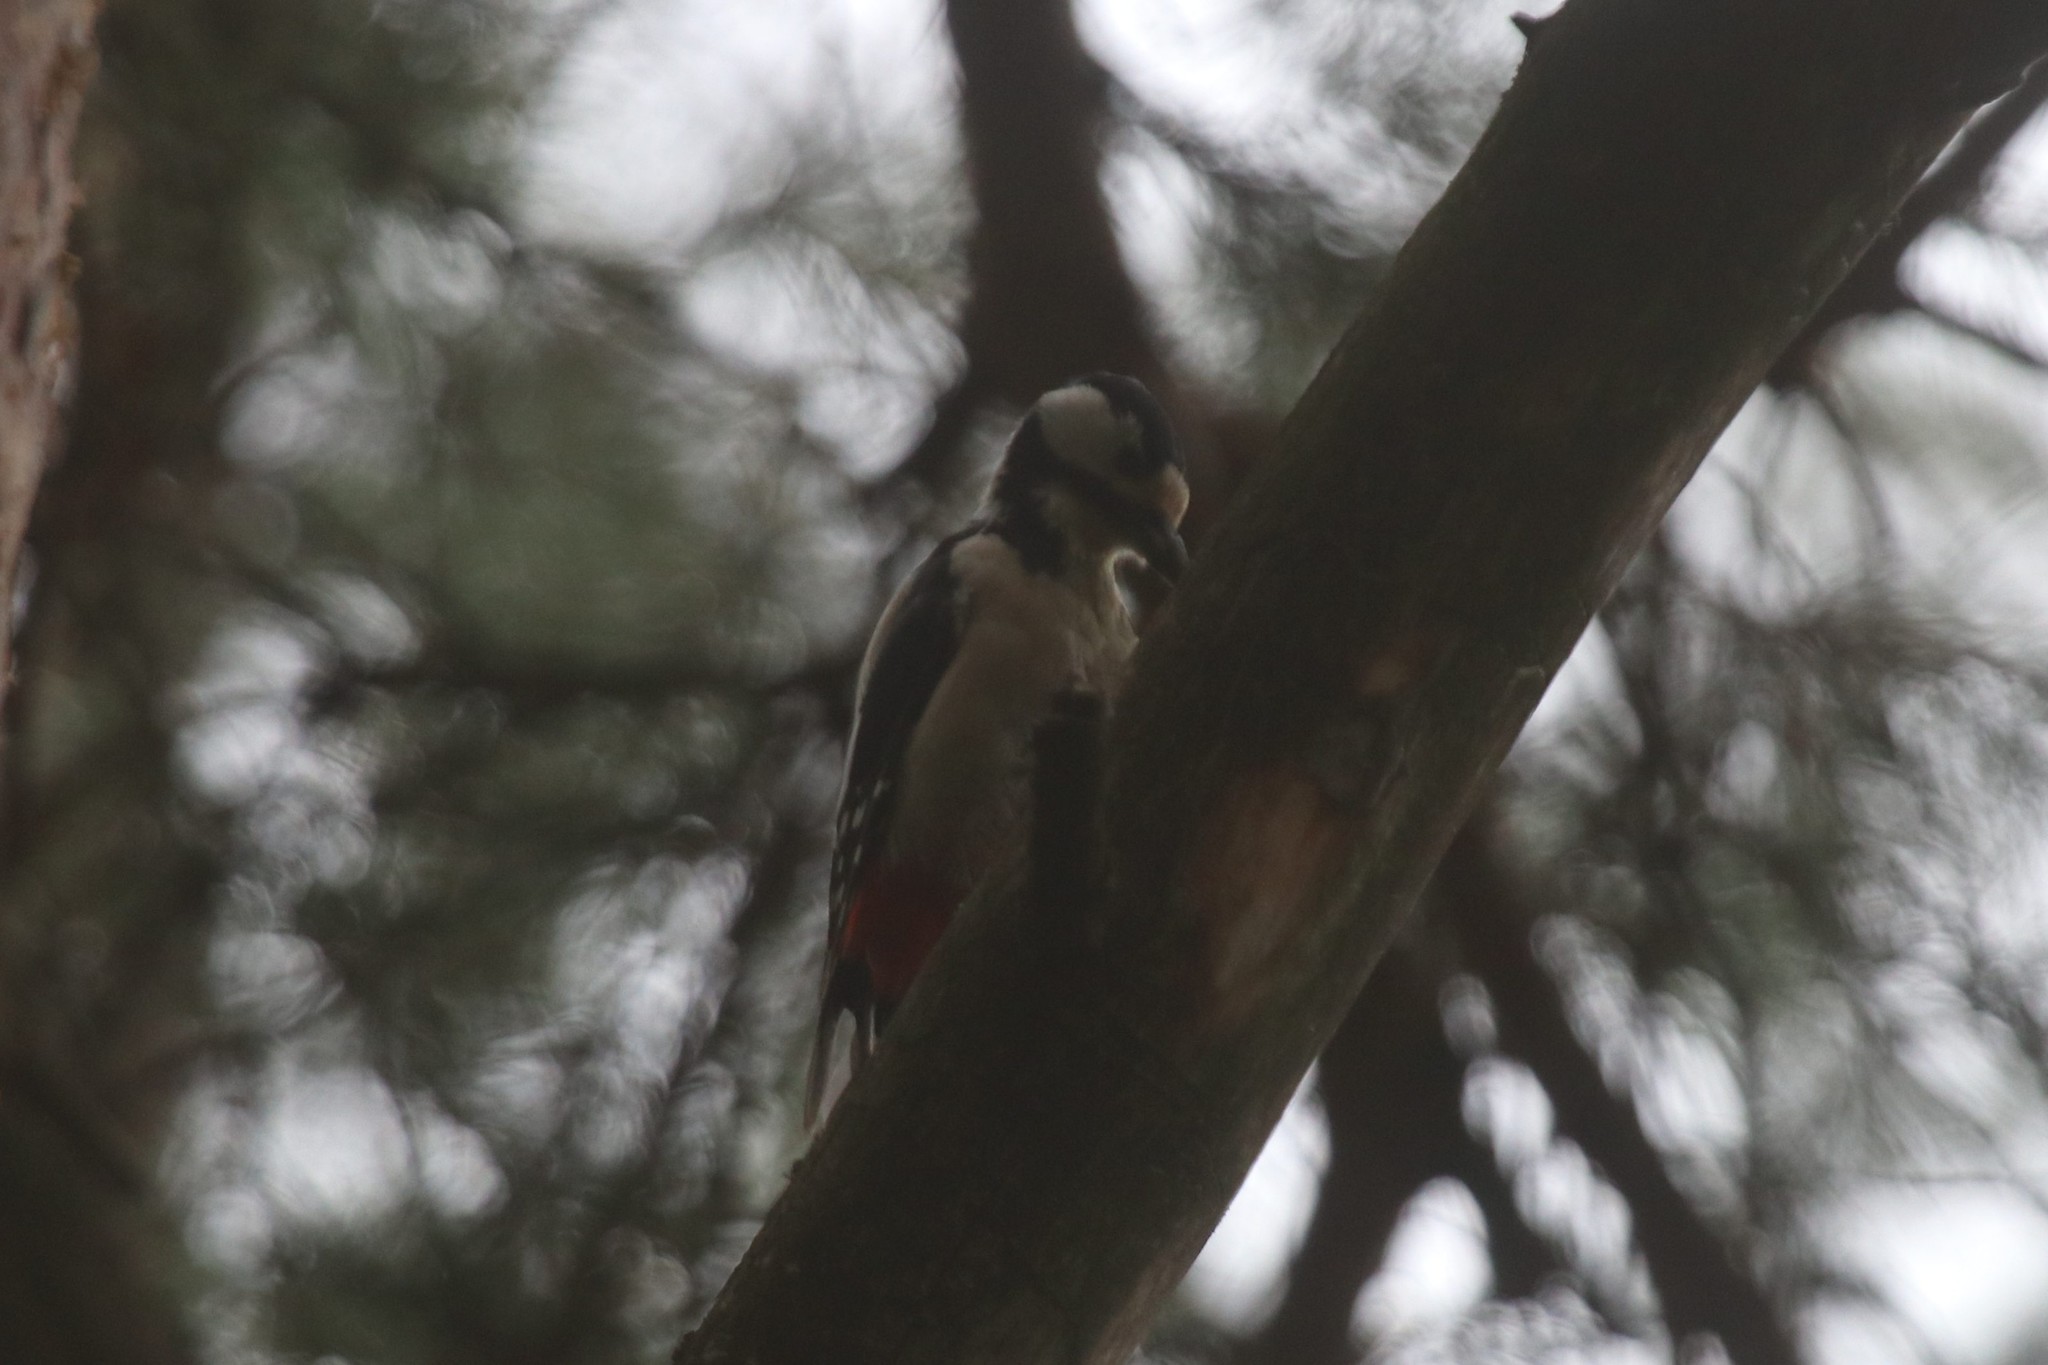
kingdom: Animalia
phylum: Chordata
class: Aves
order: Piciformes
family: Picidae
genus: Dendrocopos
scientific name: Dendrocopos major
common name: Great spotted woodpecker
